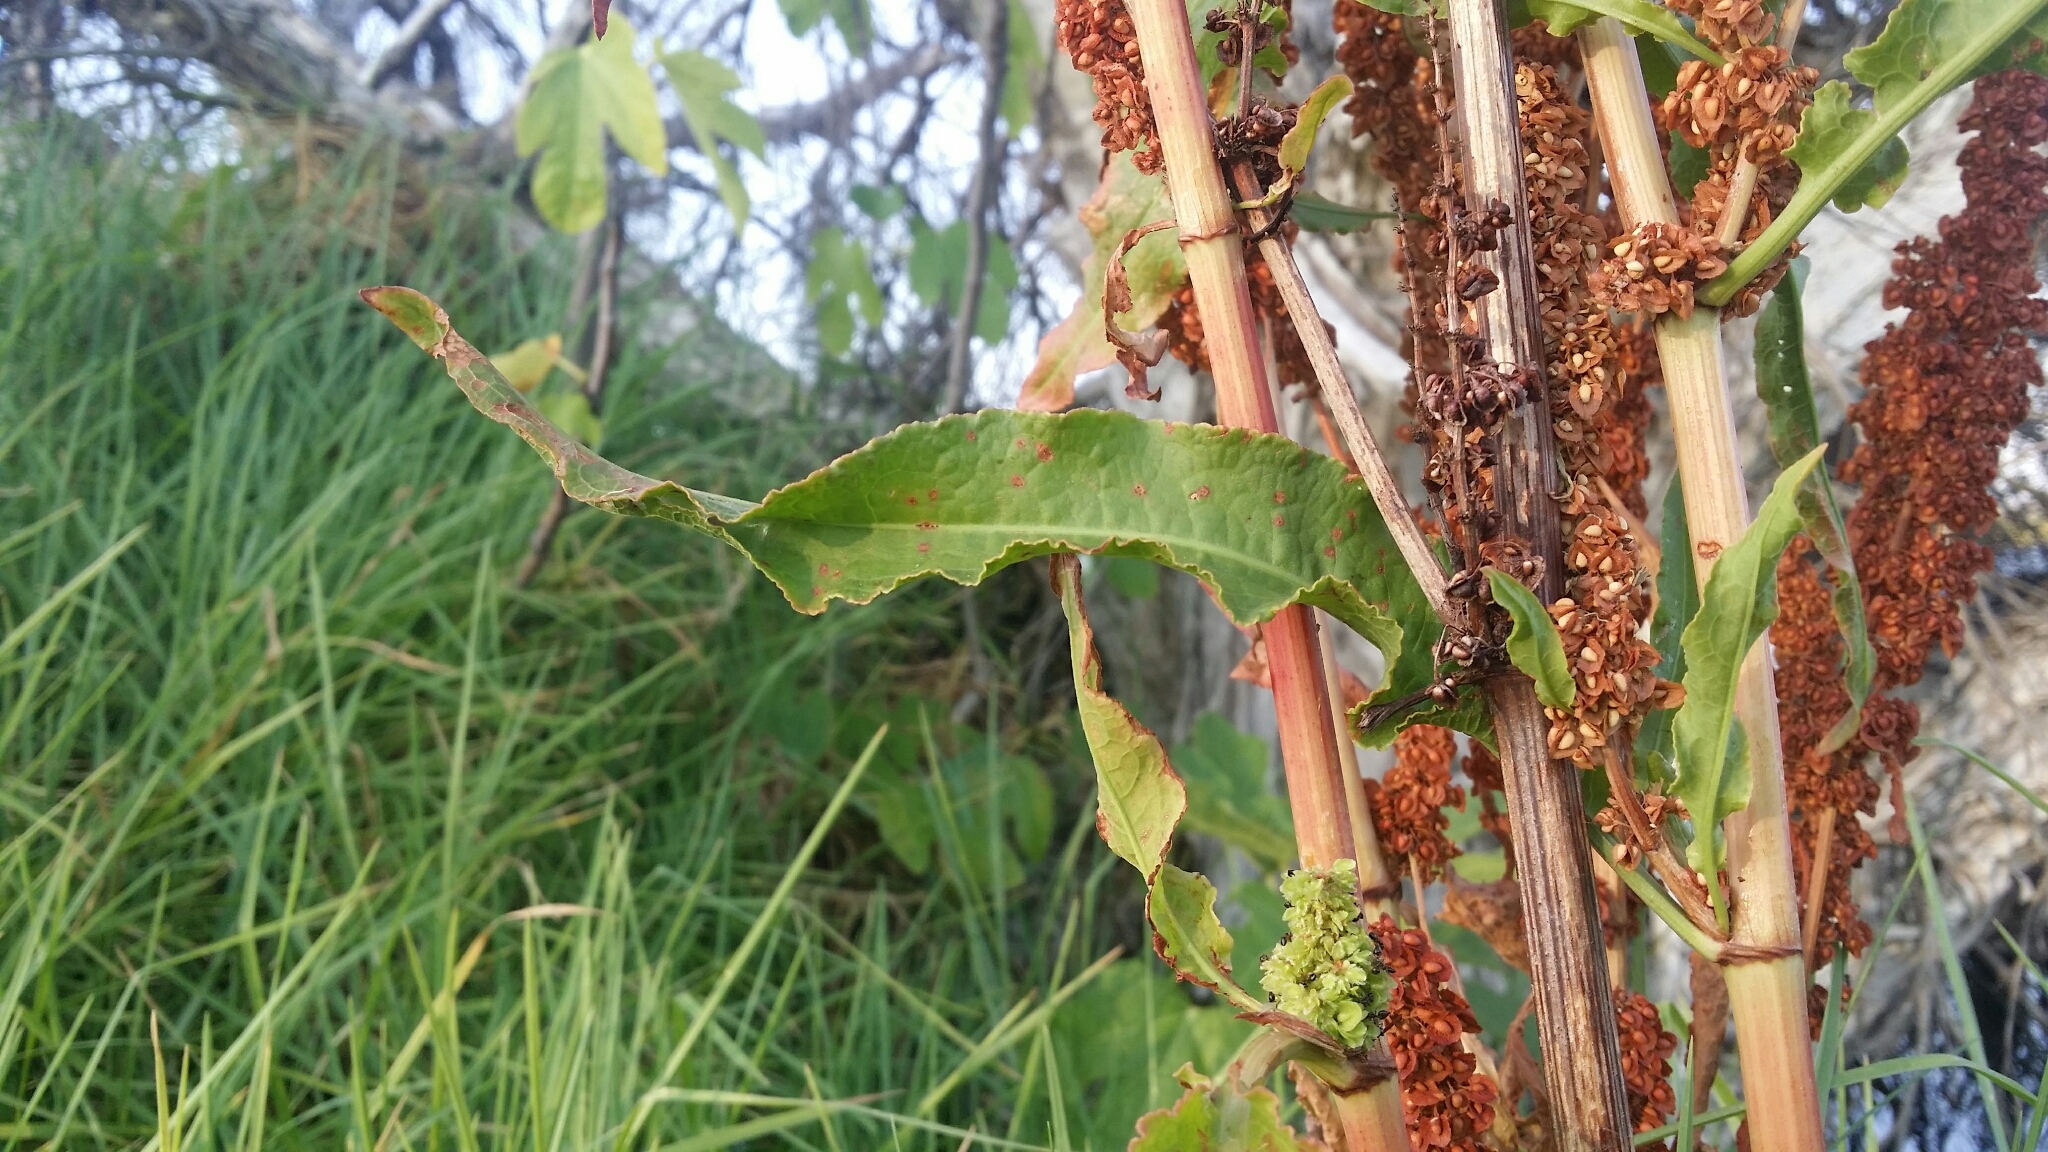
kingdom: Plantae
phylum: Tracheophyta
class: Magnoliopsida
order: Caryophyllales
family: Polygonaceae
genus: Rumex
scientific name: Rumex crispus
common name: Curled dock
